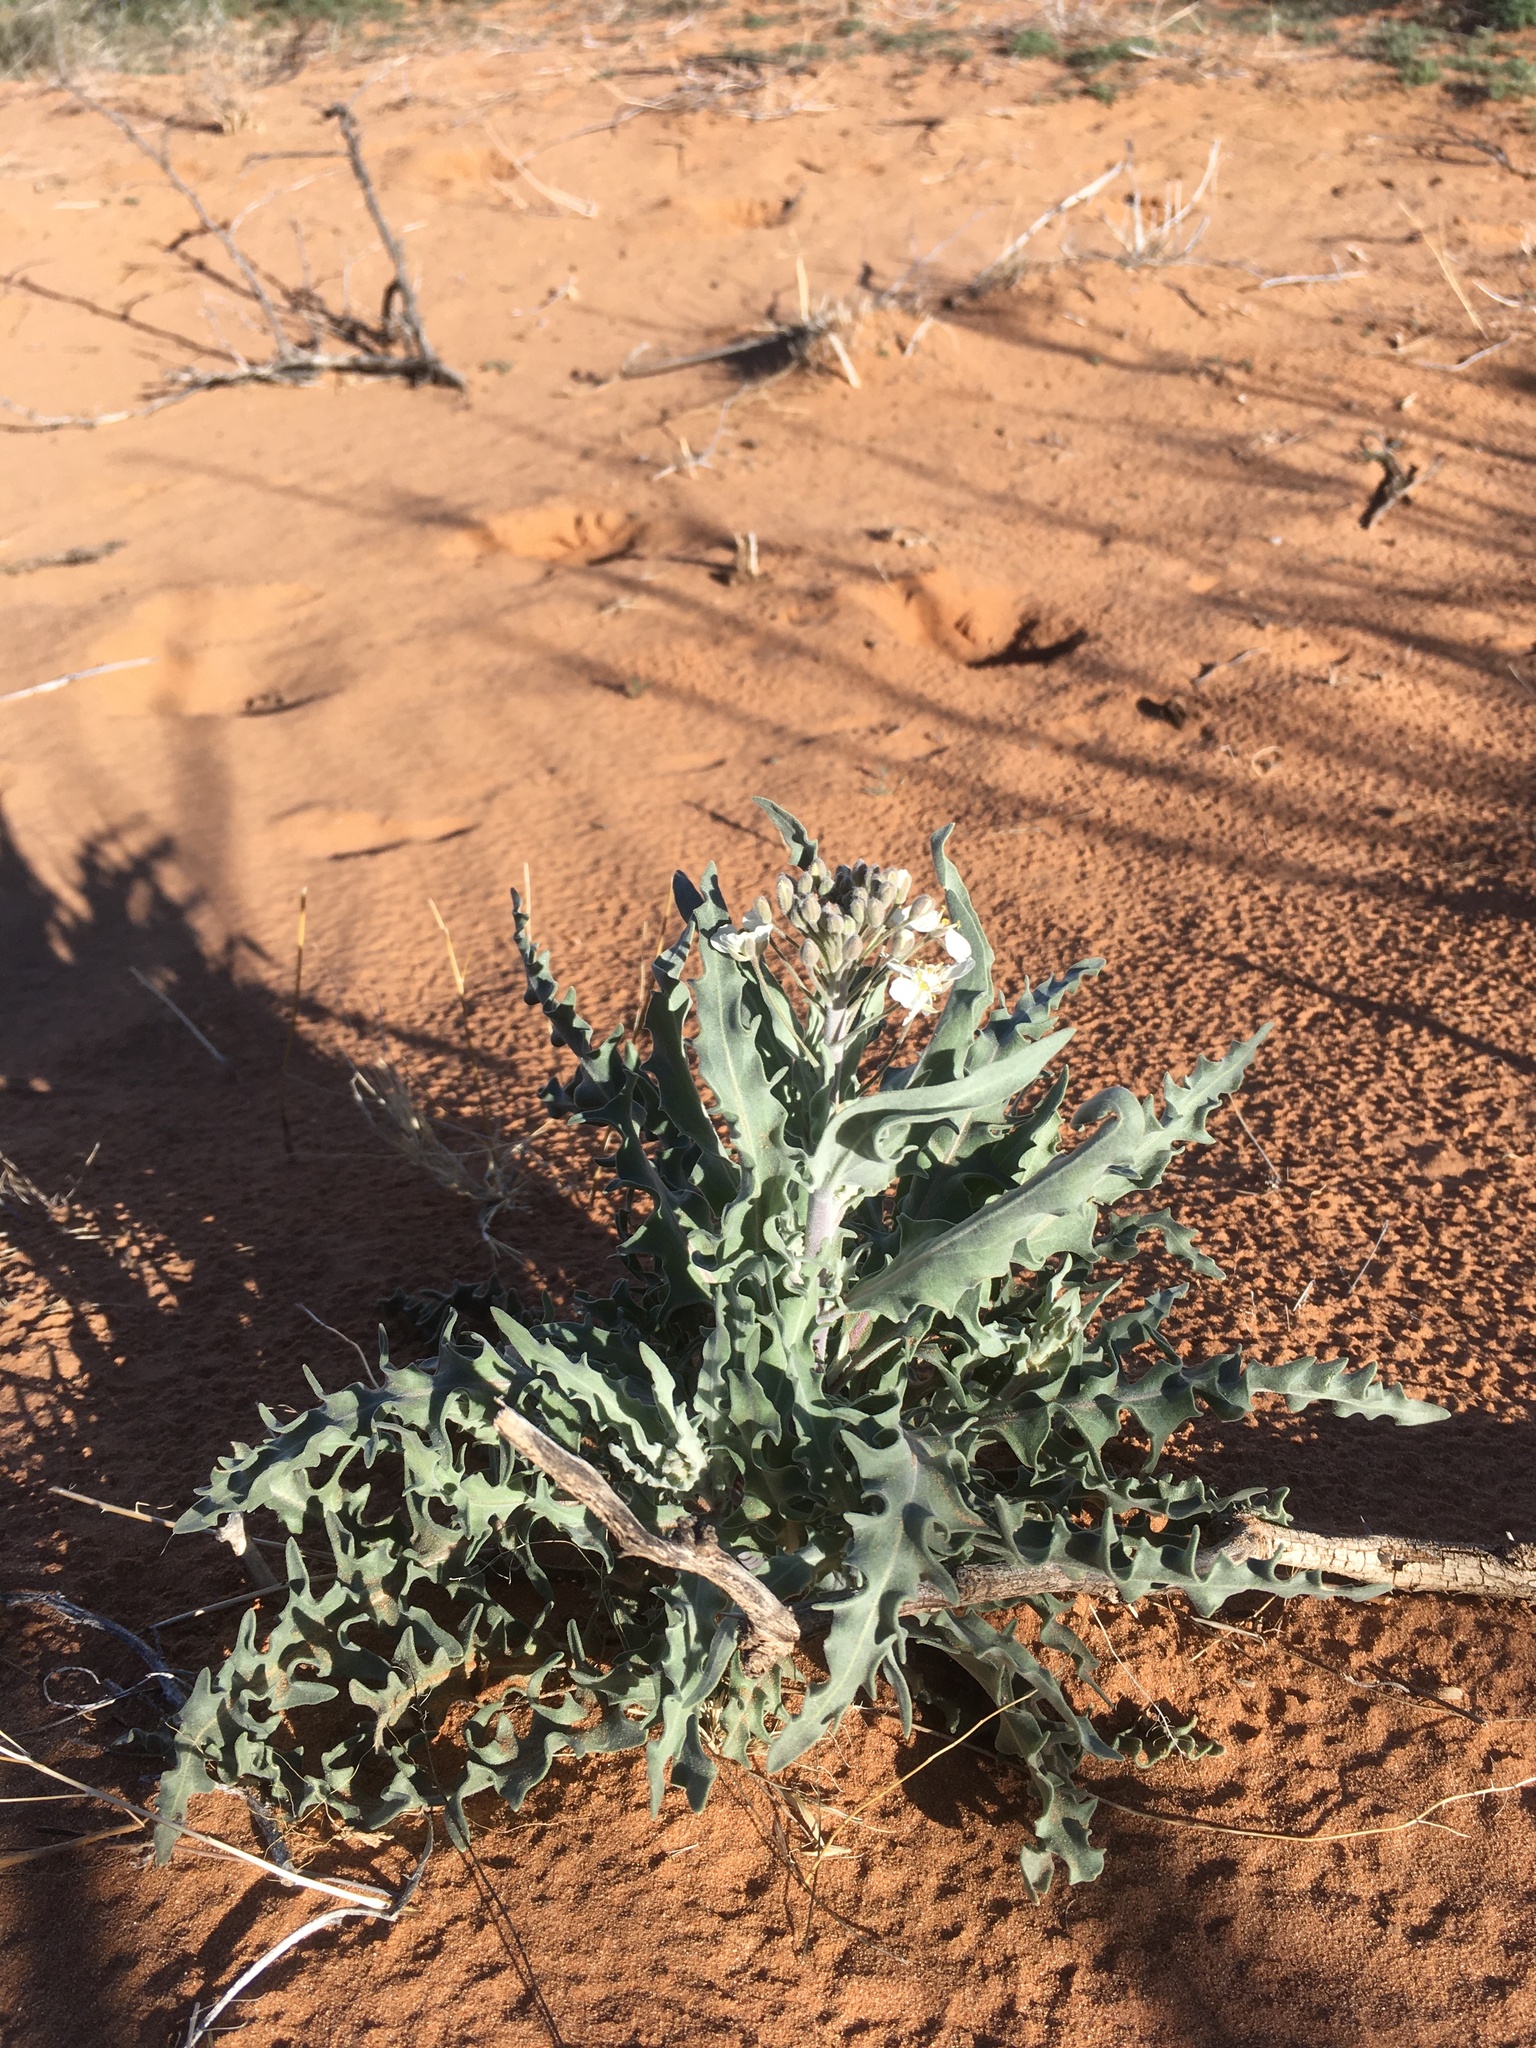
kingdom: Plantae
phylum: Tracheophyta
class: Magnoliopsida
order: Brassicales
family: Brassicaceae
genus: Dimorphocarpa
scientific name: Dimorphocarpa wislizenii
